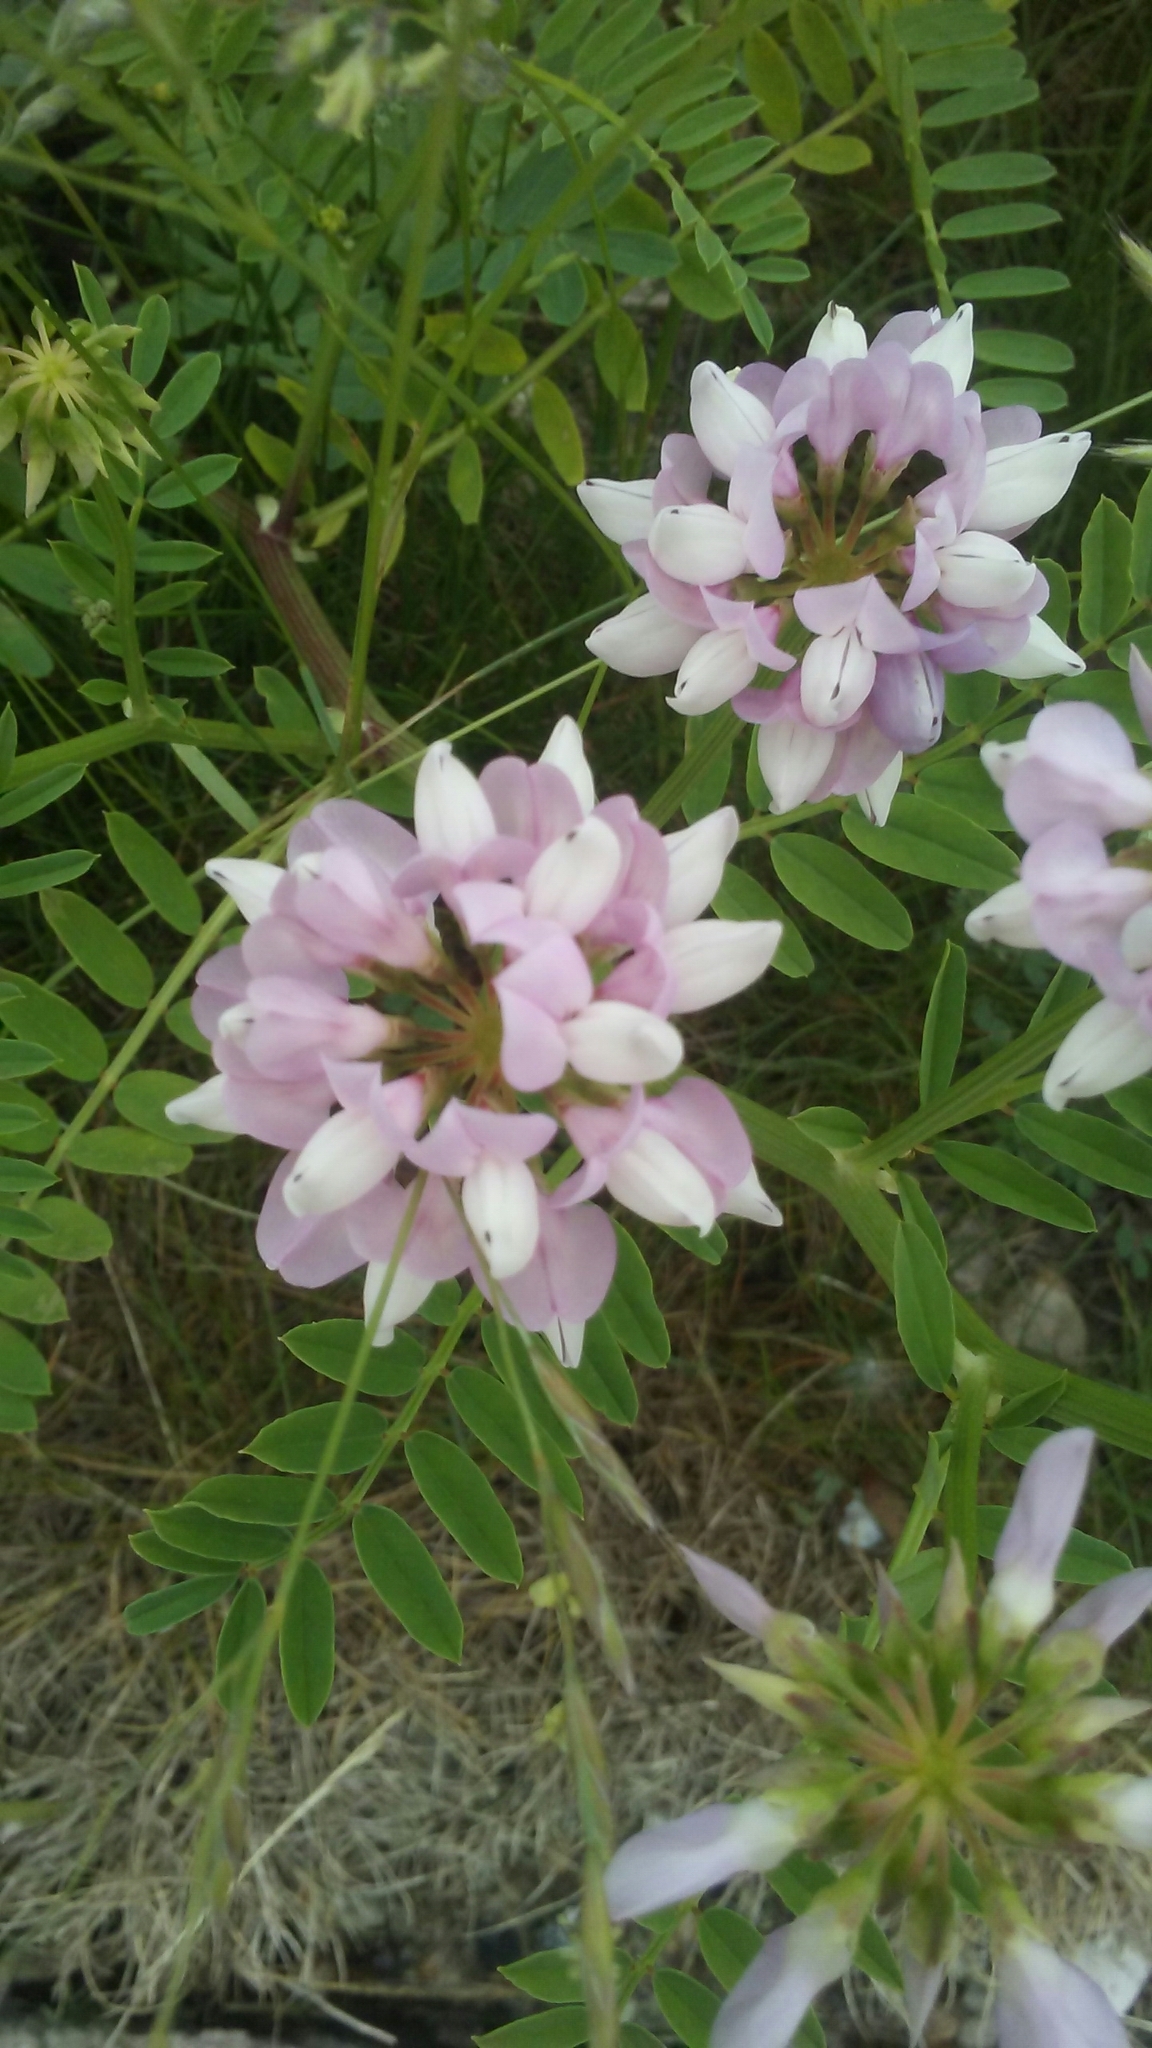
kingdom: Plantae
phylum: Tracheophyta
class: Magnoliopsida
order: Fabales
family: Fabaceae
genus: Coronilla
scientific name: Coronilla varia
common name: Crownvetch
